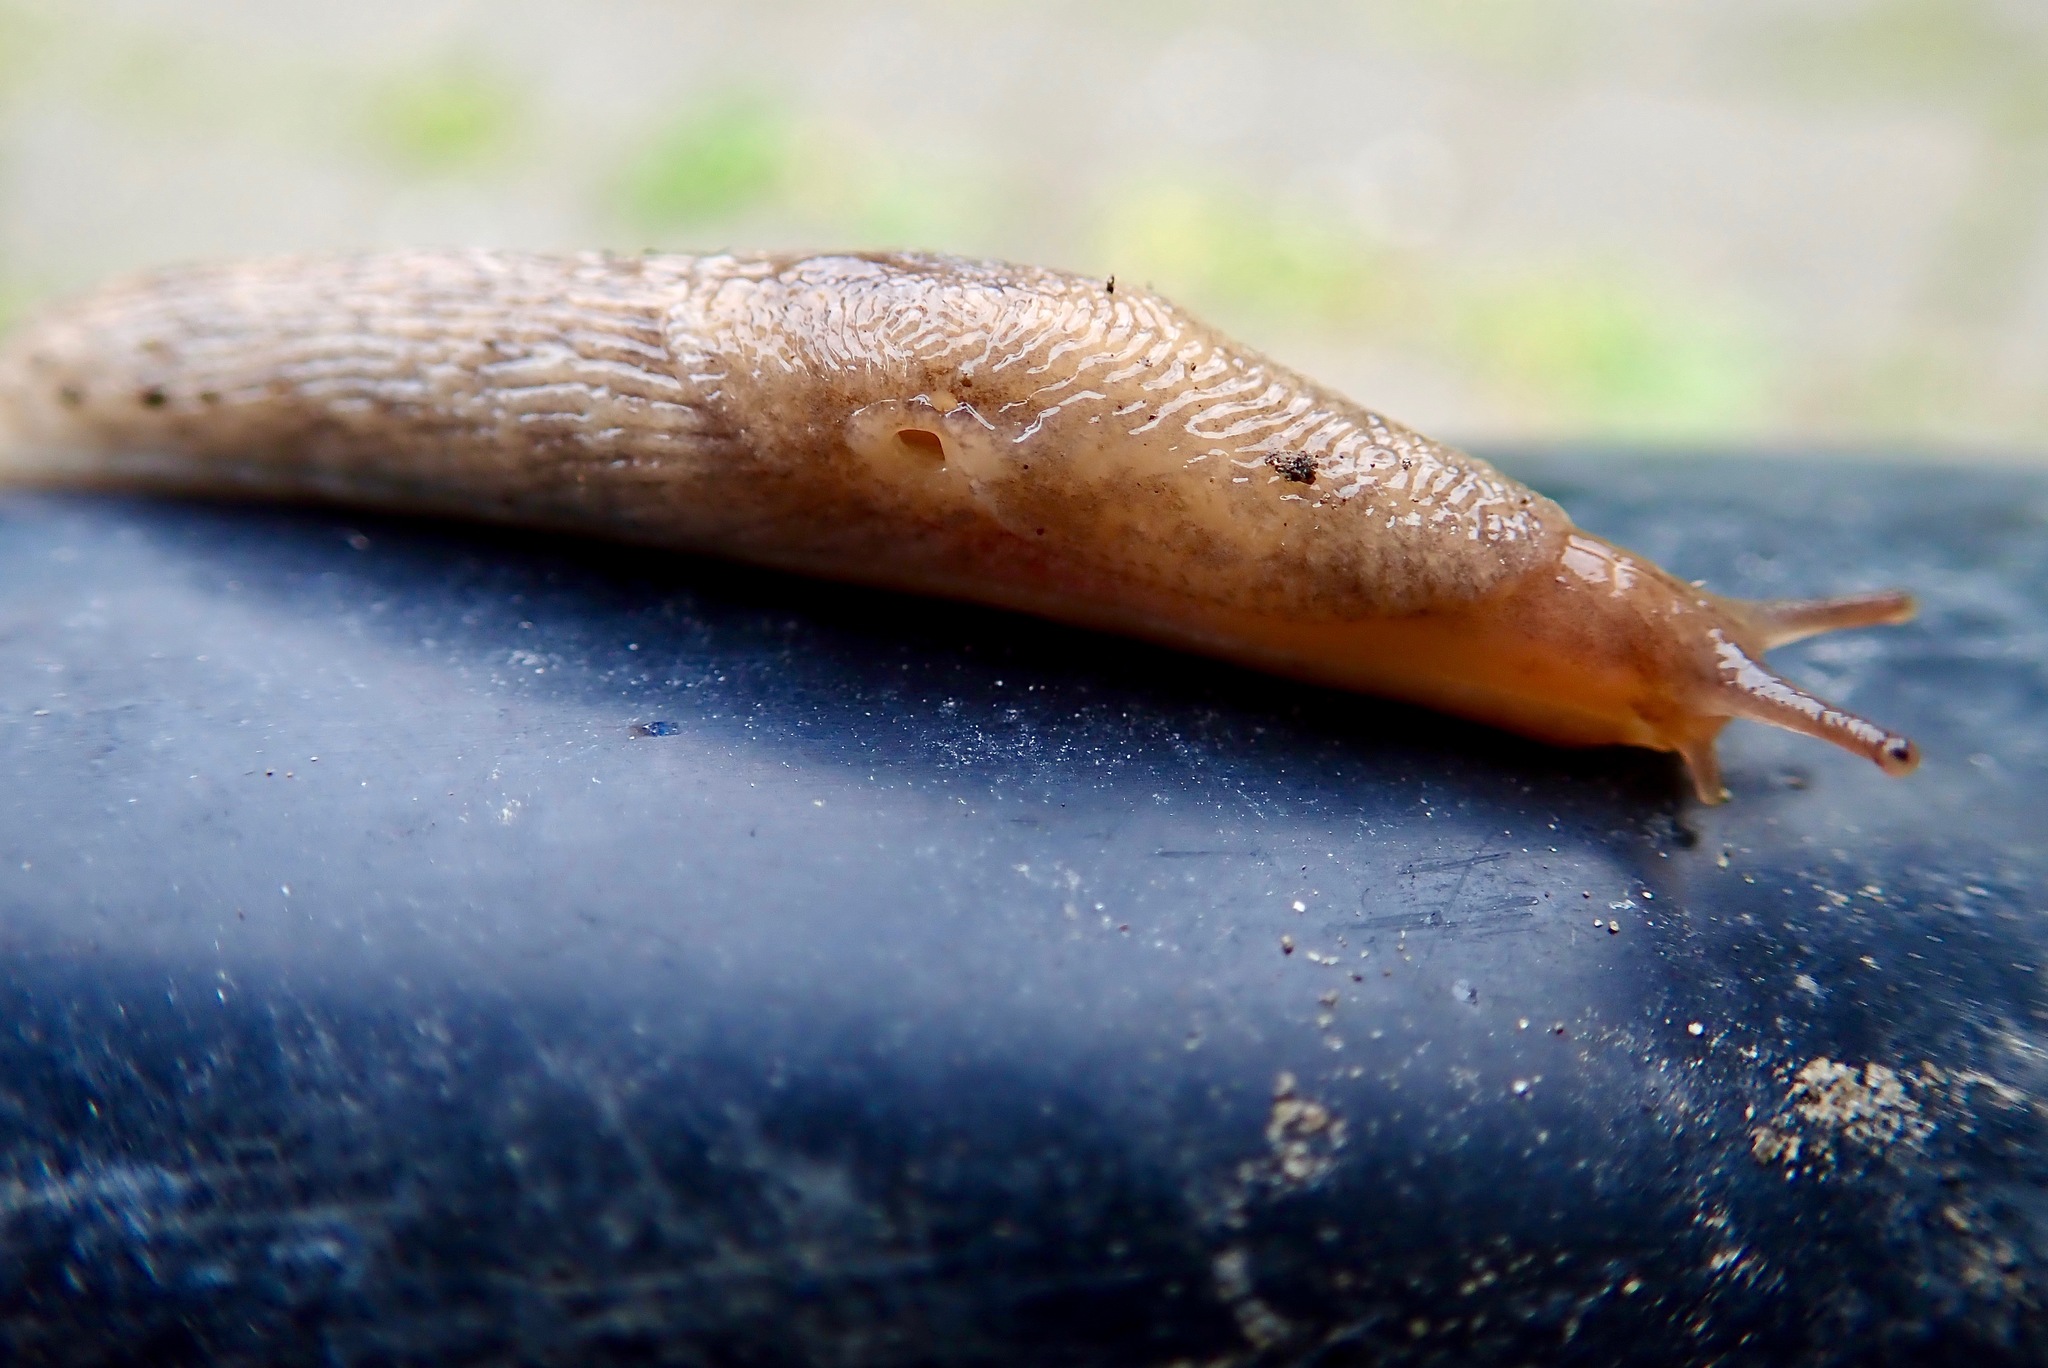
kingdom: Animalia
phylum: Mollusca
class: Gastropoda
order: Stylommatophora
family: Agriolimacidae
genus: Deroceras
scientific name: Deroceras reticulatum
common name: Gray field slug
